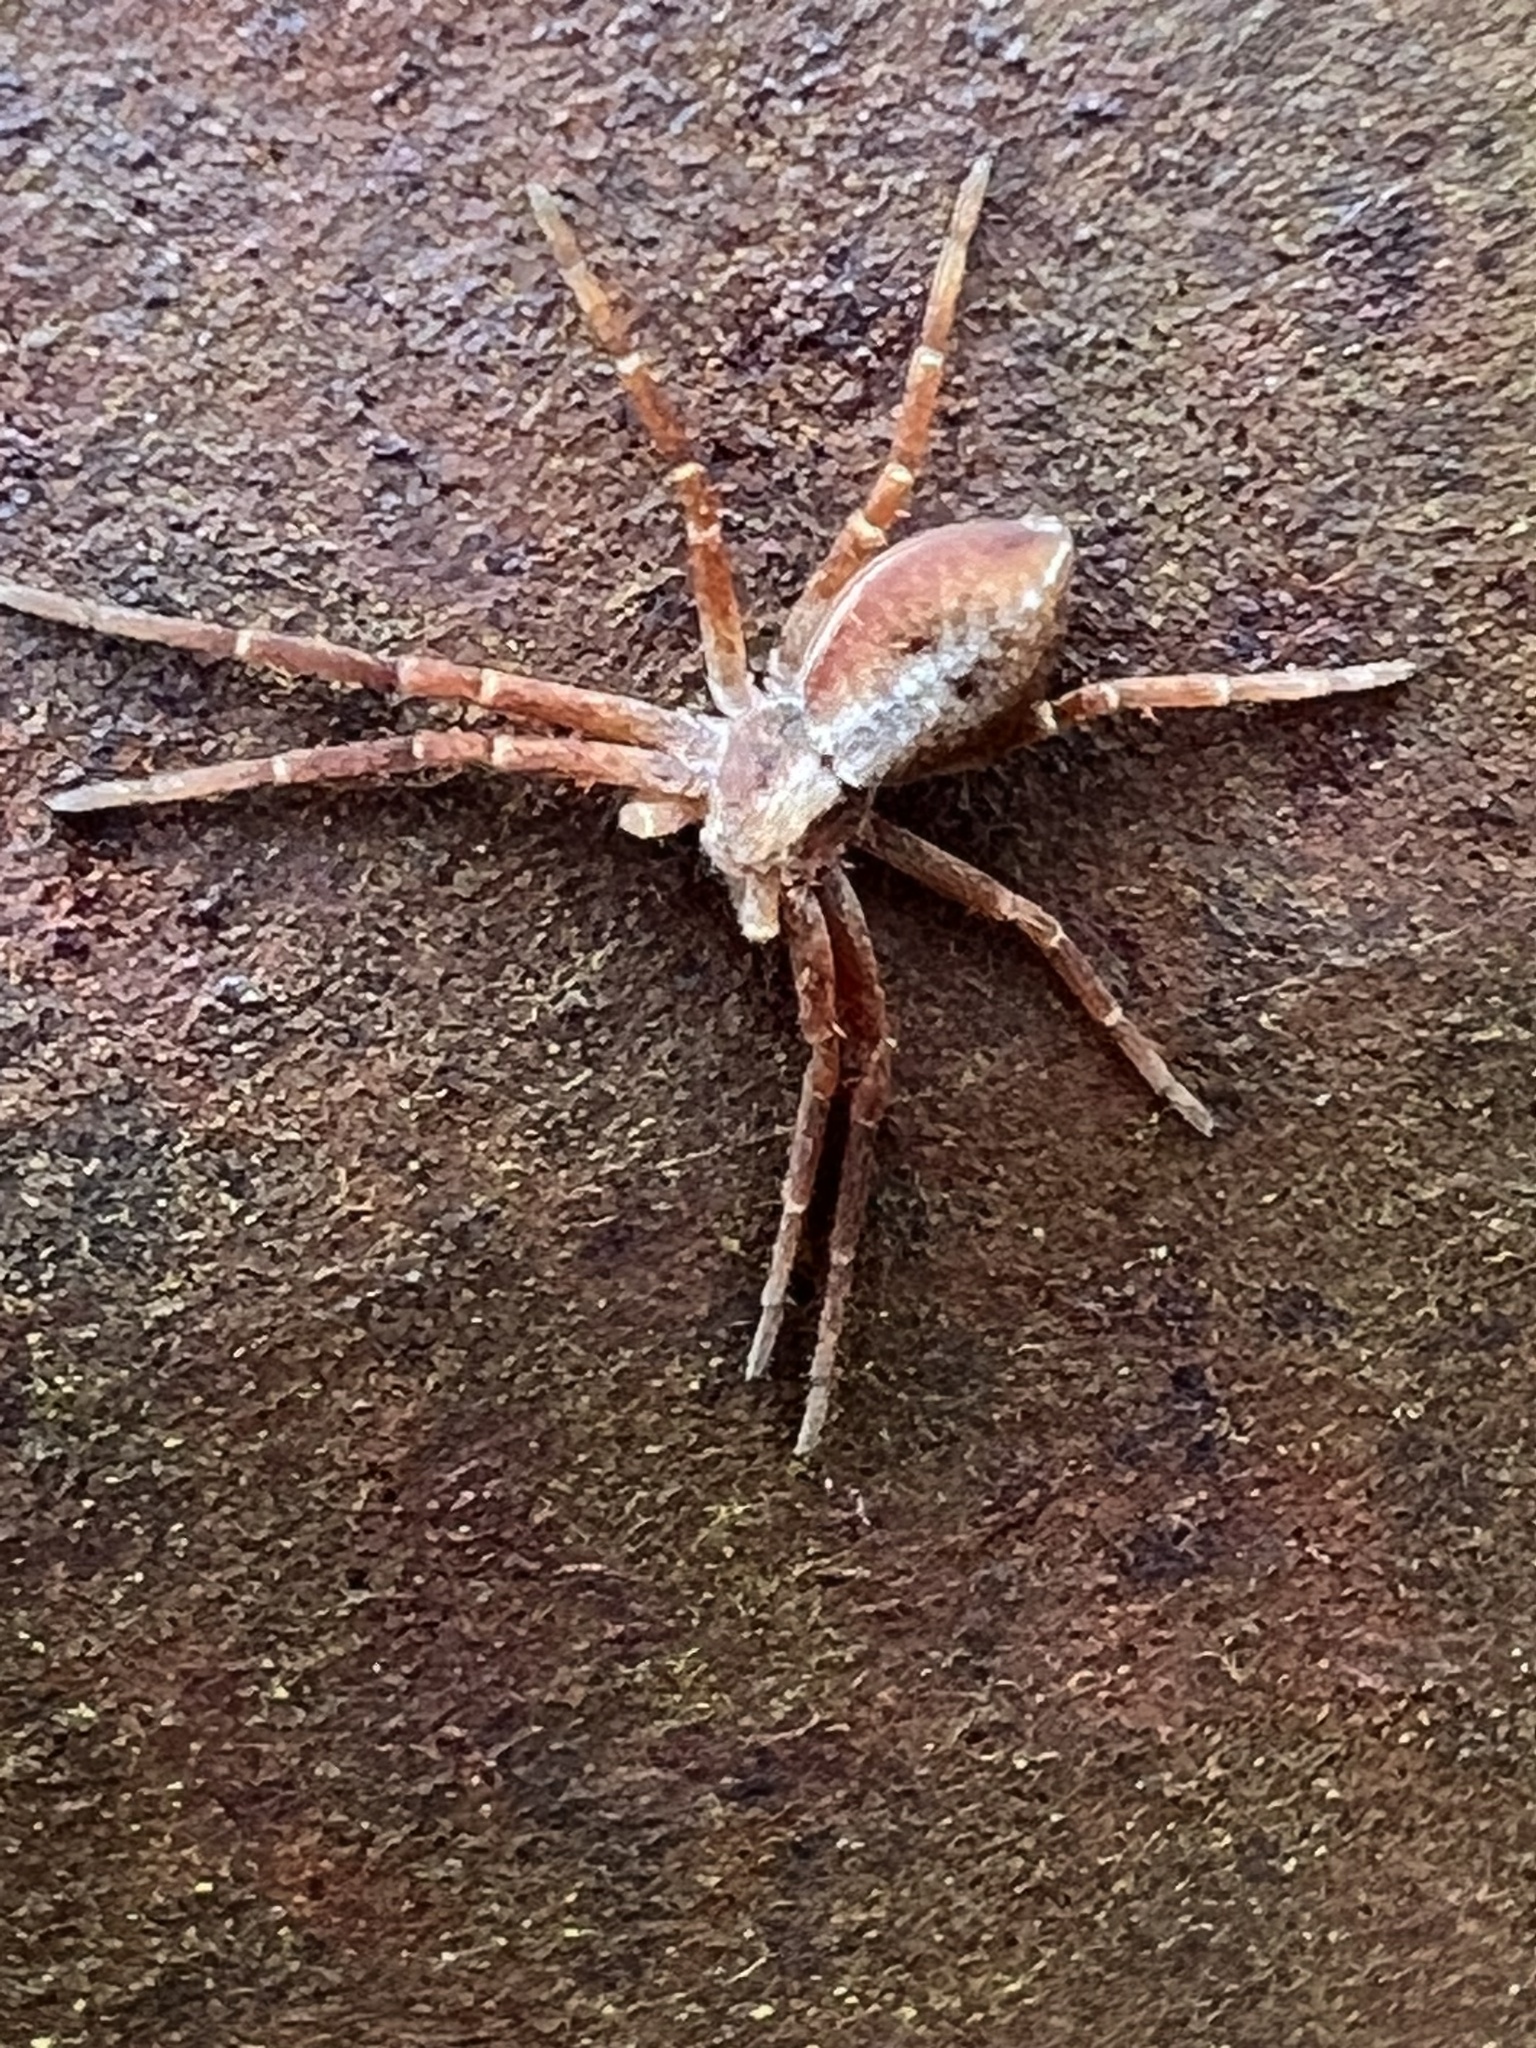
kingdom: Animalia
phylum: Arthropoda
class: Arachnida
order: Araneae
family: Philodromidae
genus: Philodromus
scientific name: Philodromus rufus
